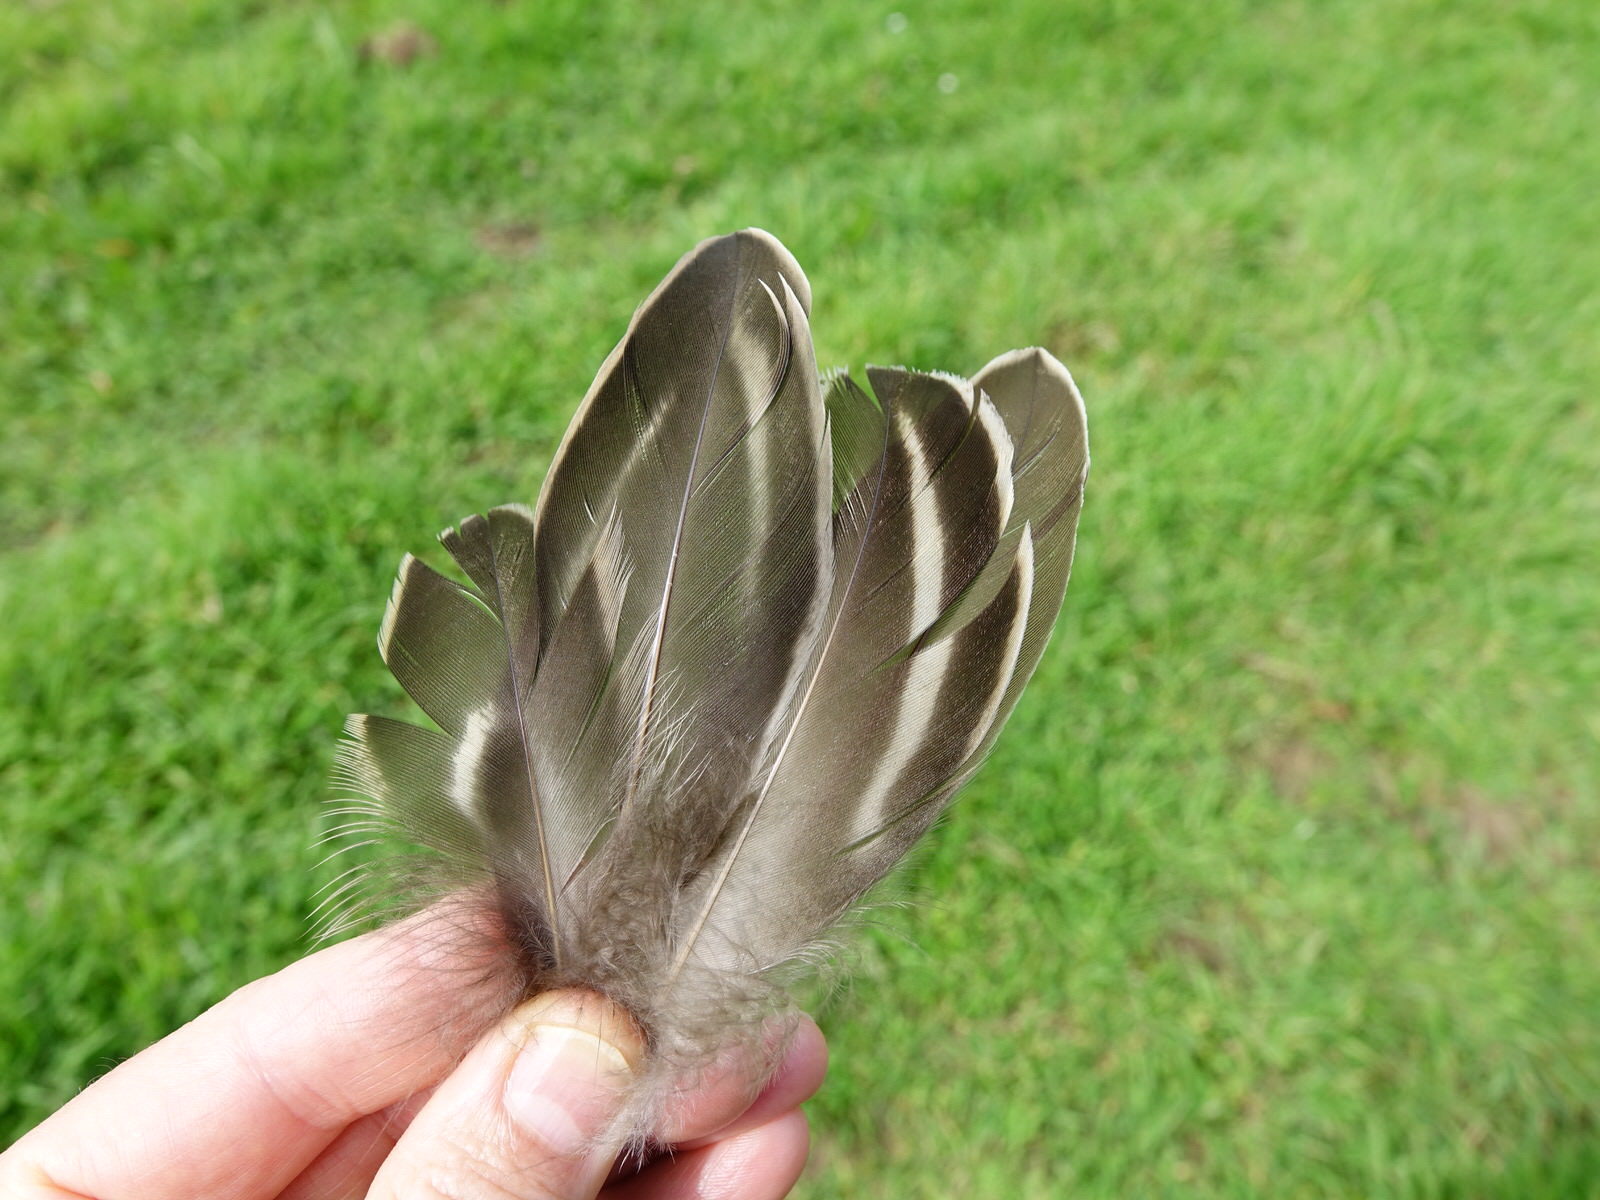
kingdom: Animalia
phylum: Chordata
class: Aves
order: Anseriformes
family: Anatidae
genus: Anas
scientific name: Anas
